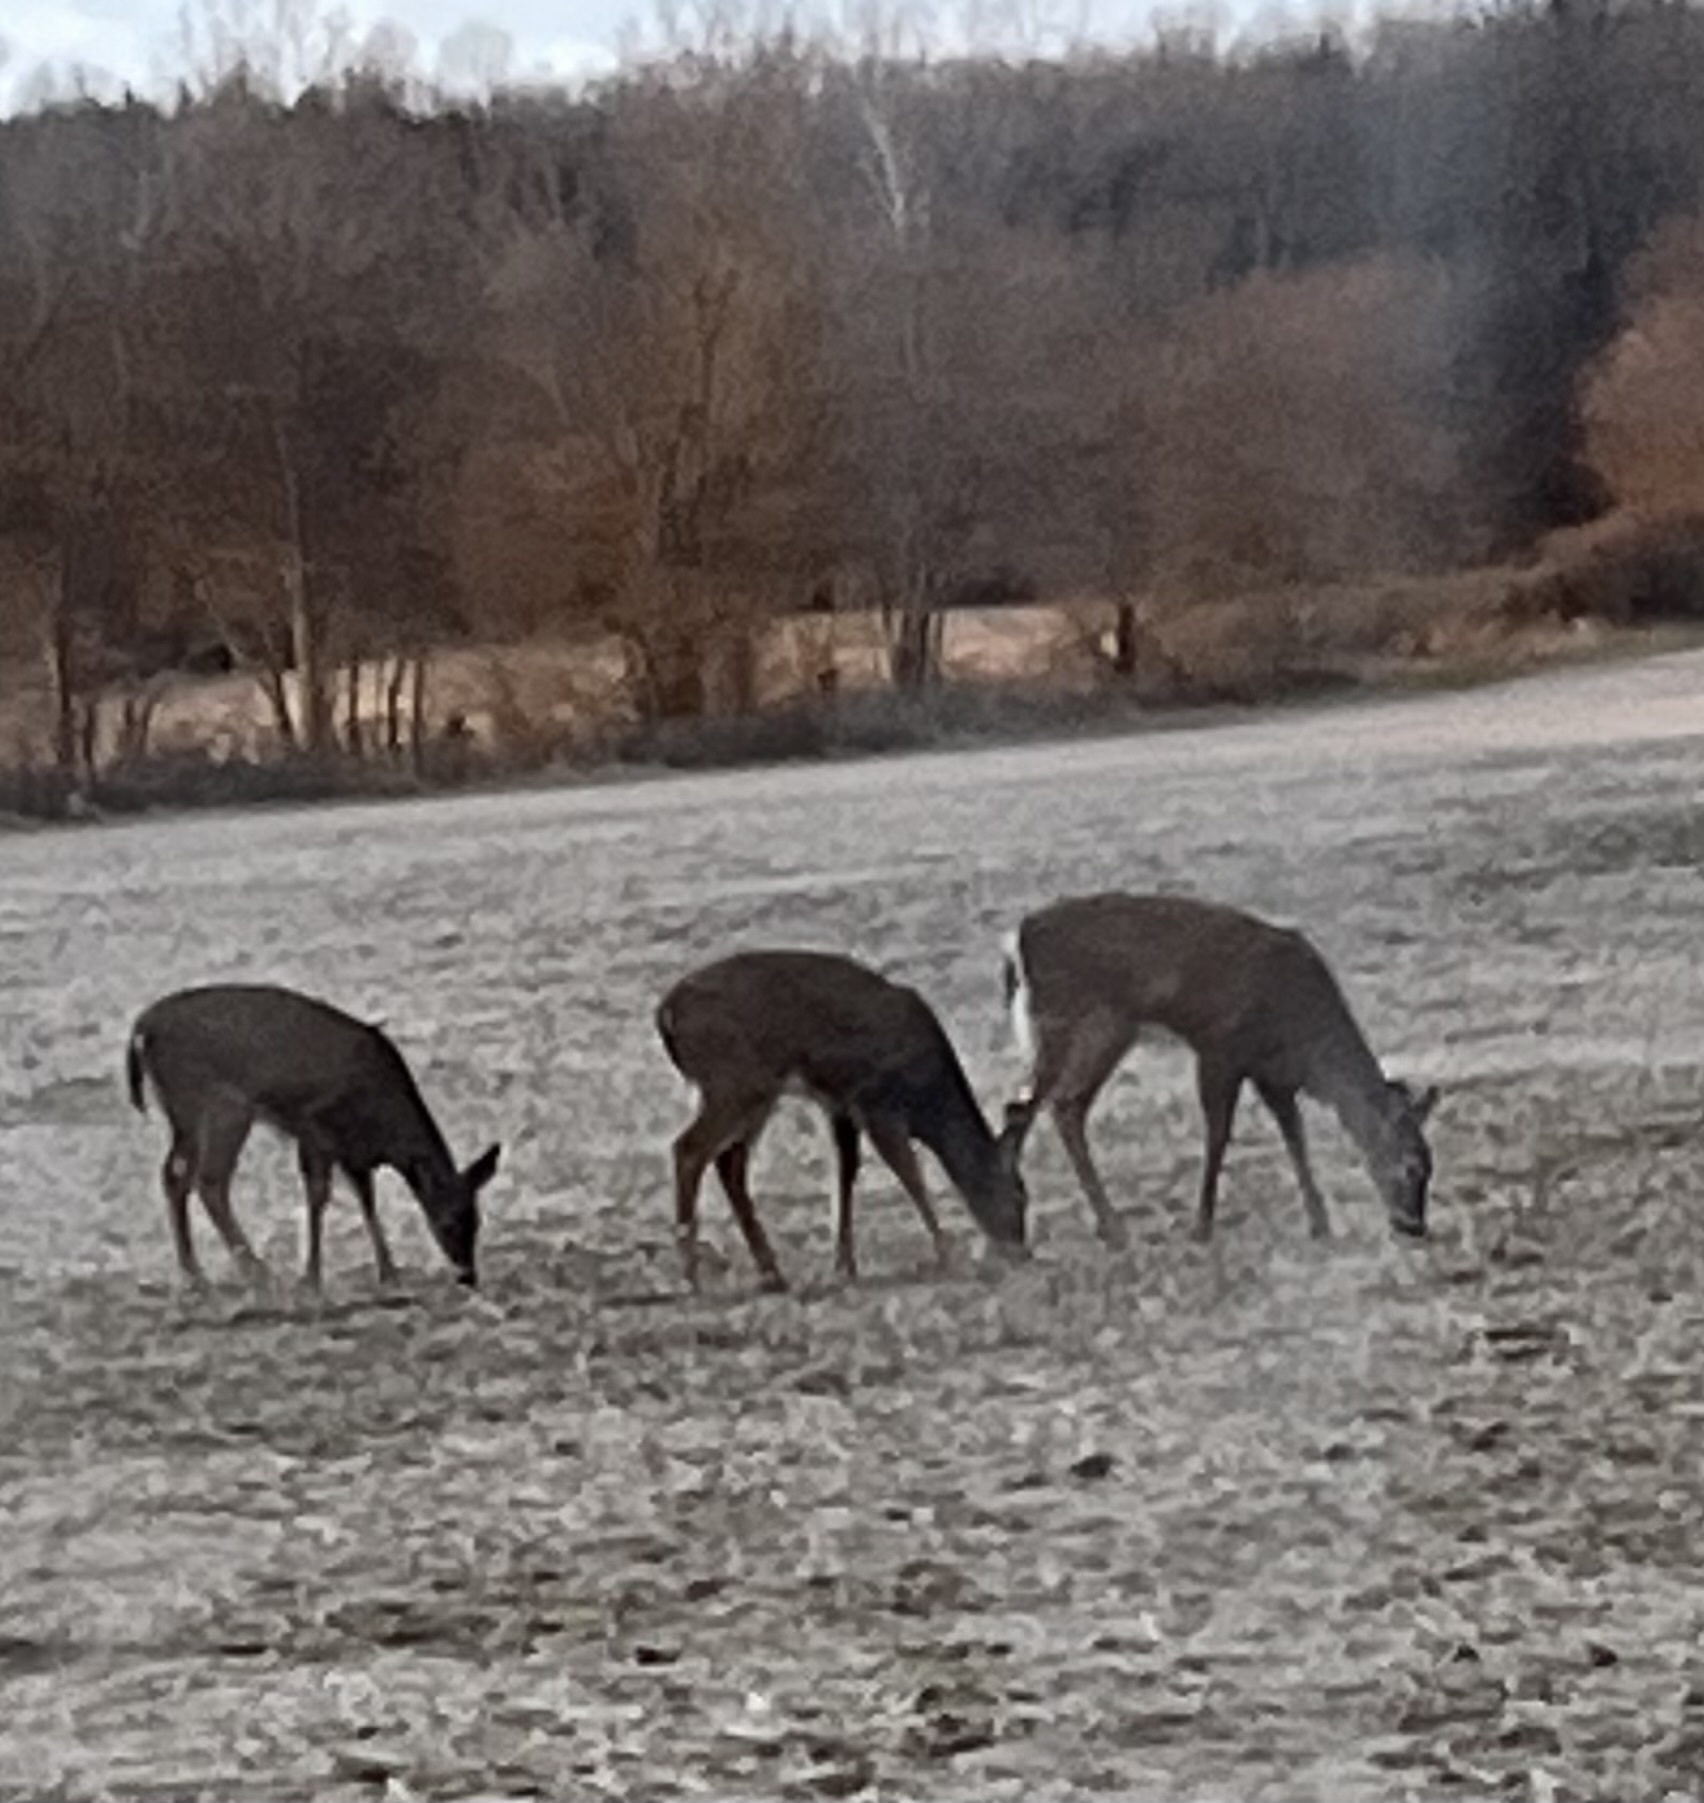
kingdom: Animalia
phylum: Chordata
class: Mammalia
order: Artiodactyla
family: Cervidae
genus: Odocoileus
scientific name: Odocoileus virginianus
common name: White-tailed deer
